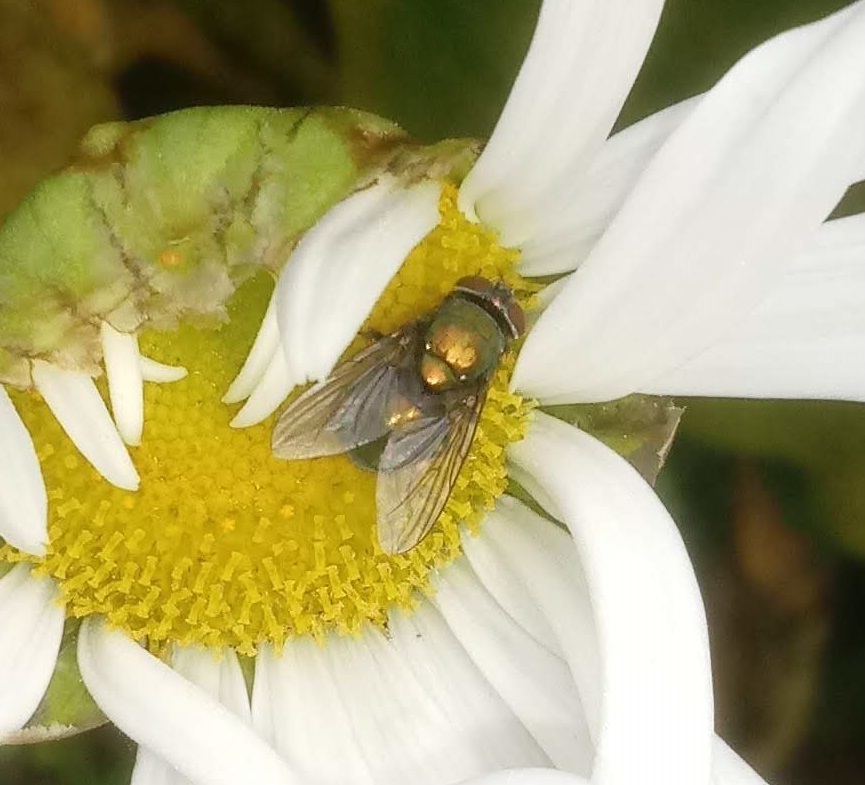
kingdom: Animalia
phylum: Arthropoda
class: Insecta
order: Diptera
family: Calliphoridae
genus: Lucilia
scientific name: Lucilia sericata
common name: Blow fly
